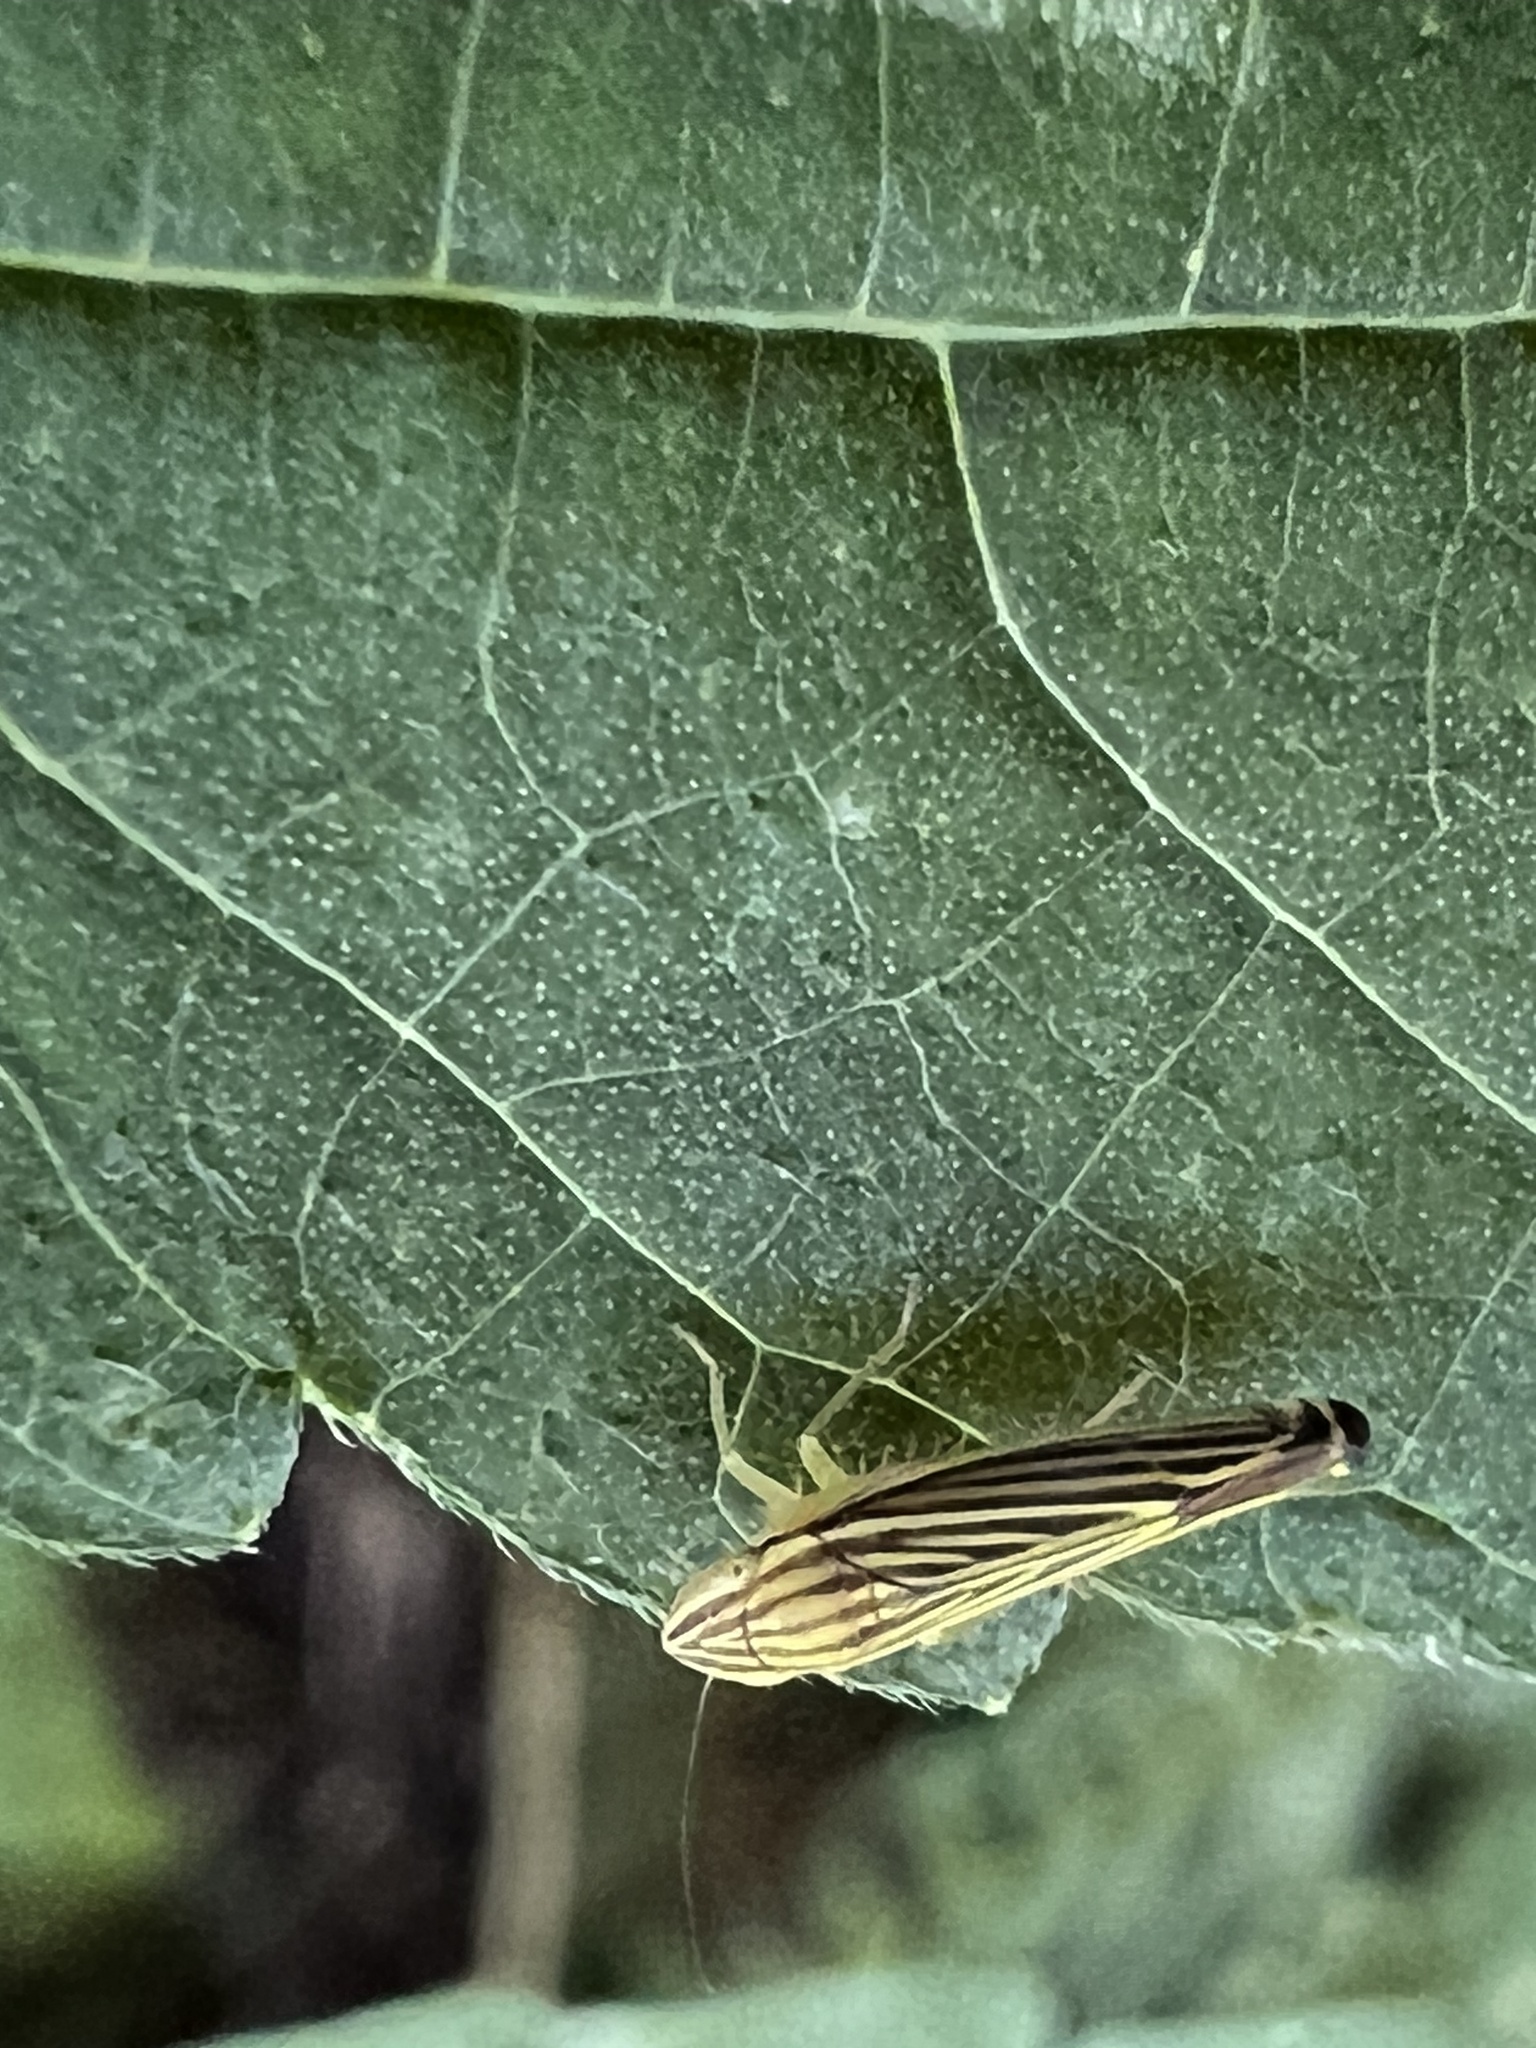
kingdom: Animalia
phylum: Arthropoda
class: Insecta
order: Hemiptera
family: Cicadellidae
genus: Sibovia
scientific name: Sibovia occatoria
